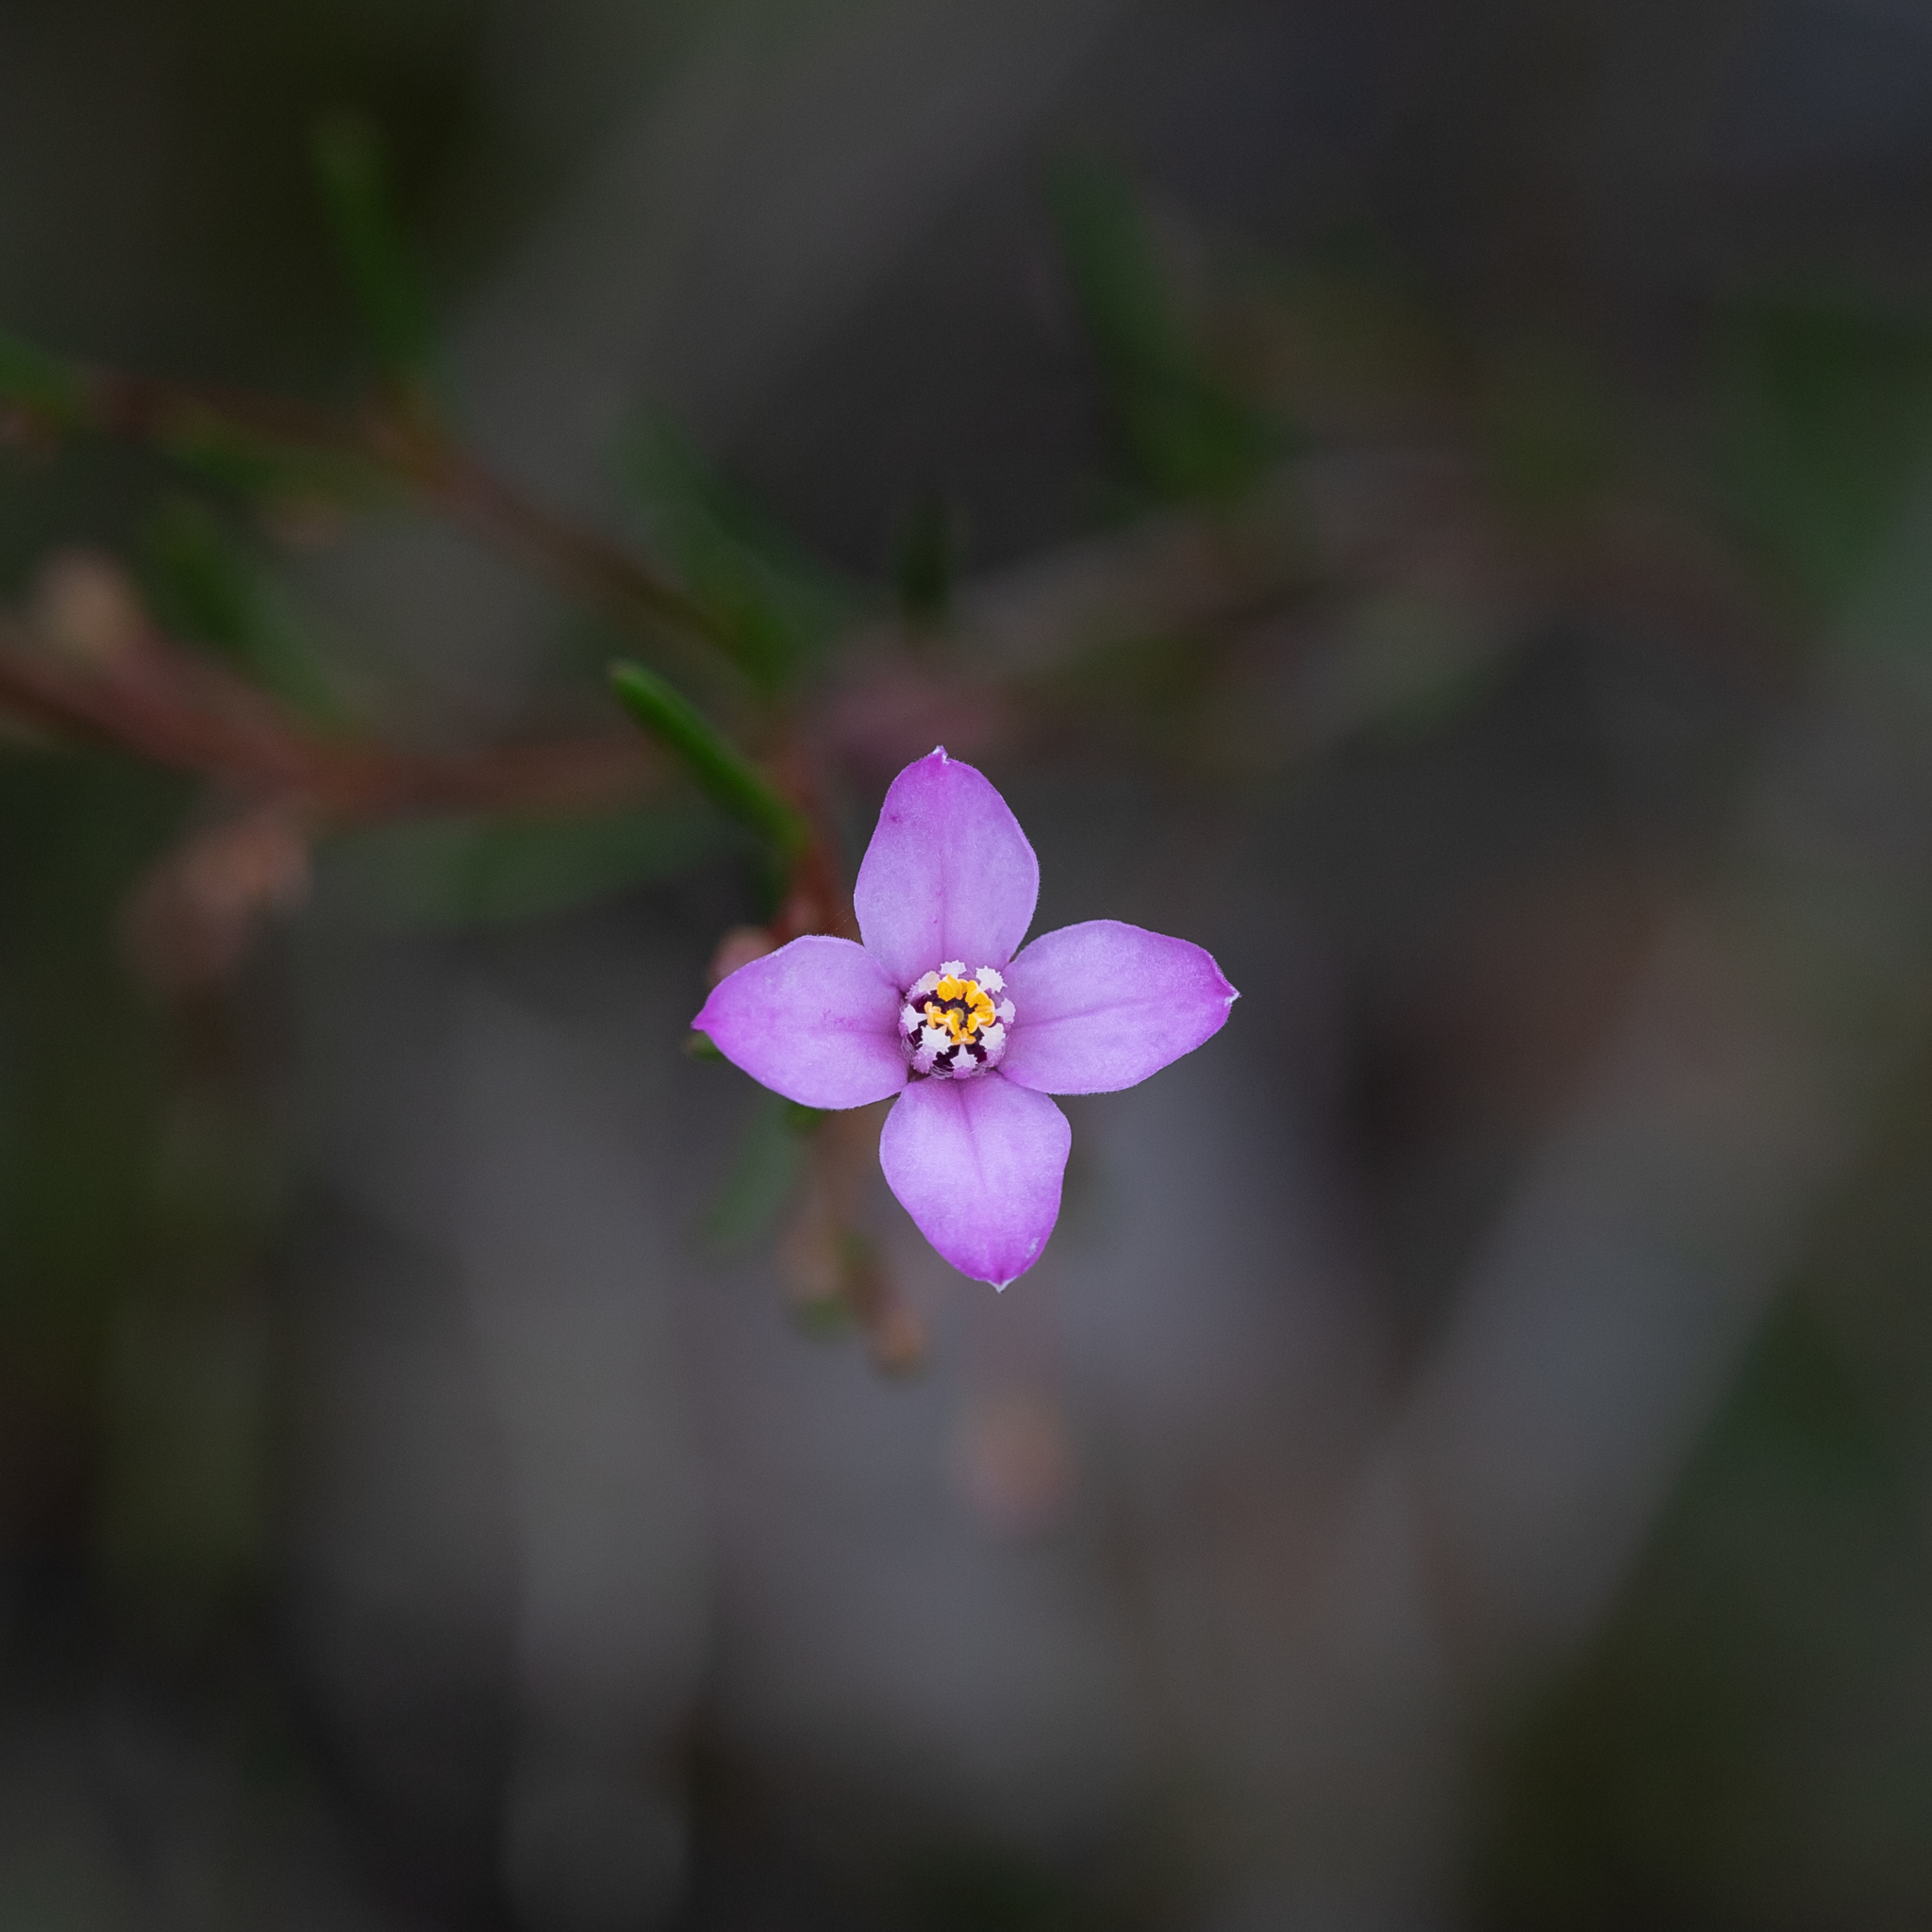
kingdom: Plantae
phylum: Tracheophyta
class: Magnoliopsida
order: Sapindales
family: Rutaceae
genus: Boronia
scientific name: Boronia filifolia
